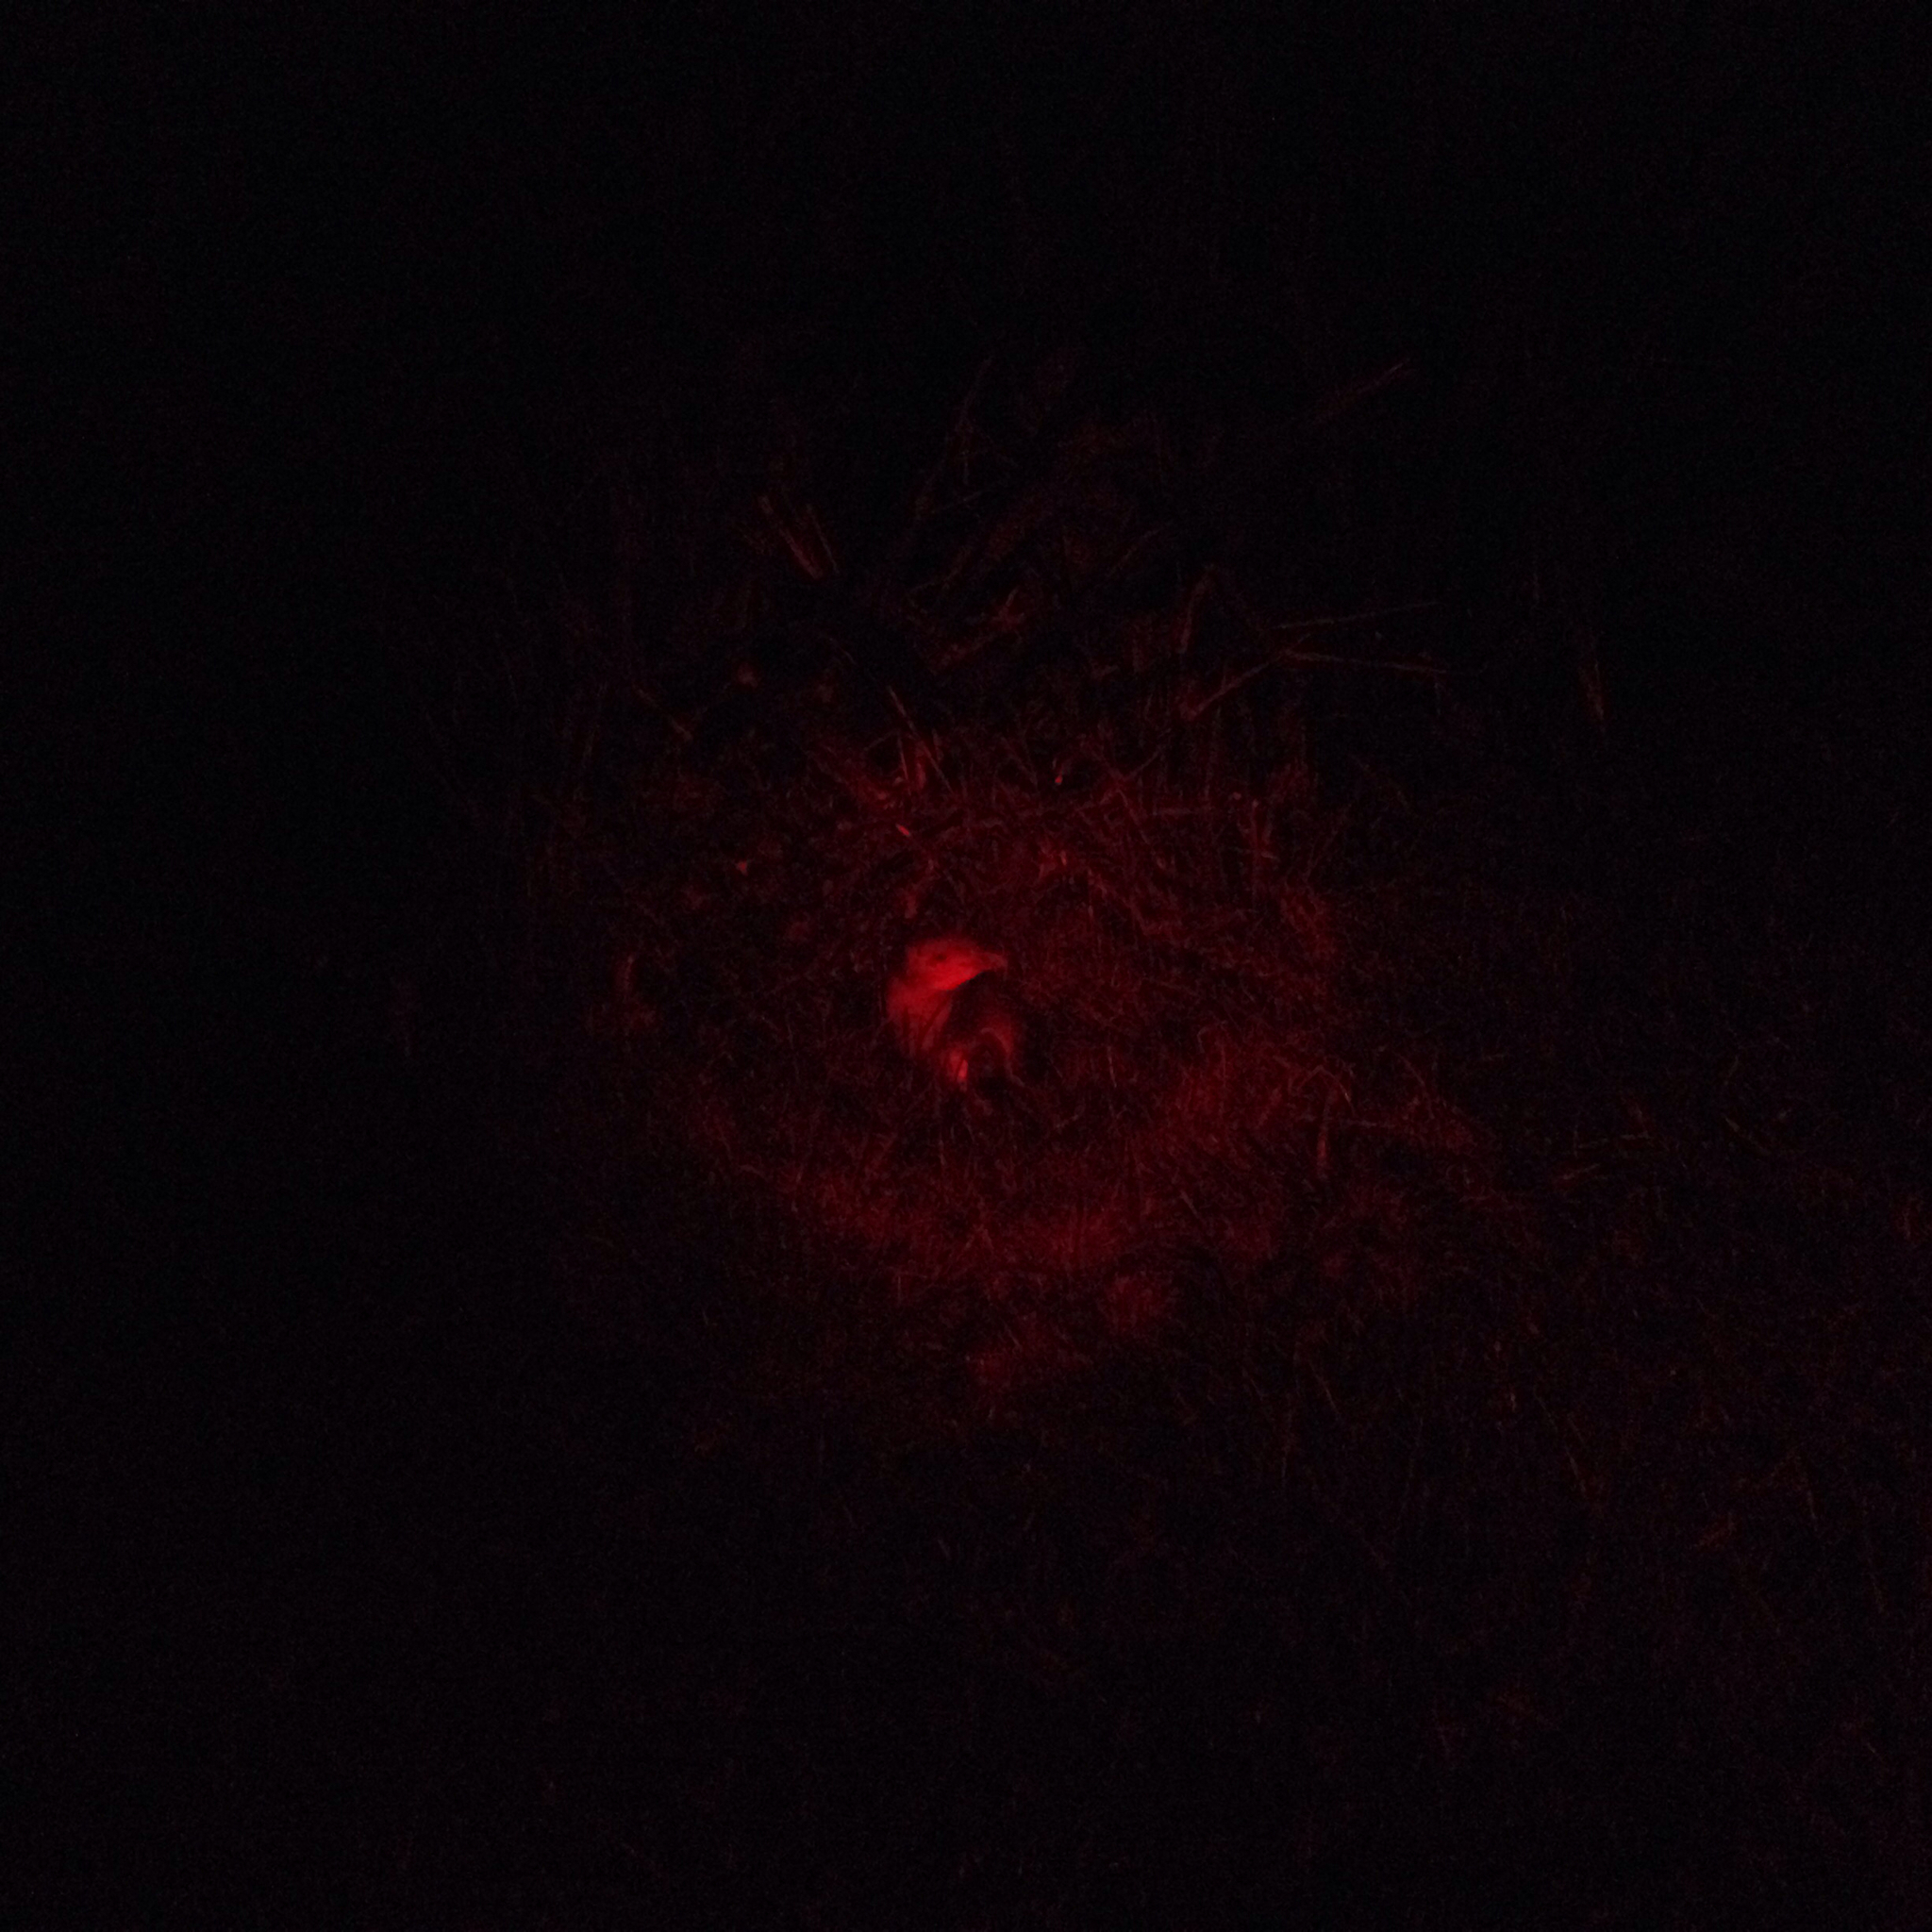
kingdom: Animalia
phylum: Chordata
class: Aves
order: Sphenisciformes
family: Spheniscidae
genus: Eudyptula
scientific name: Eudyptula minor
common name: Little penguin
